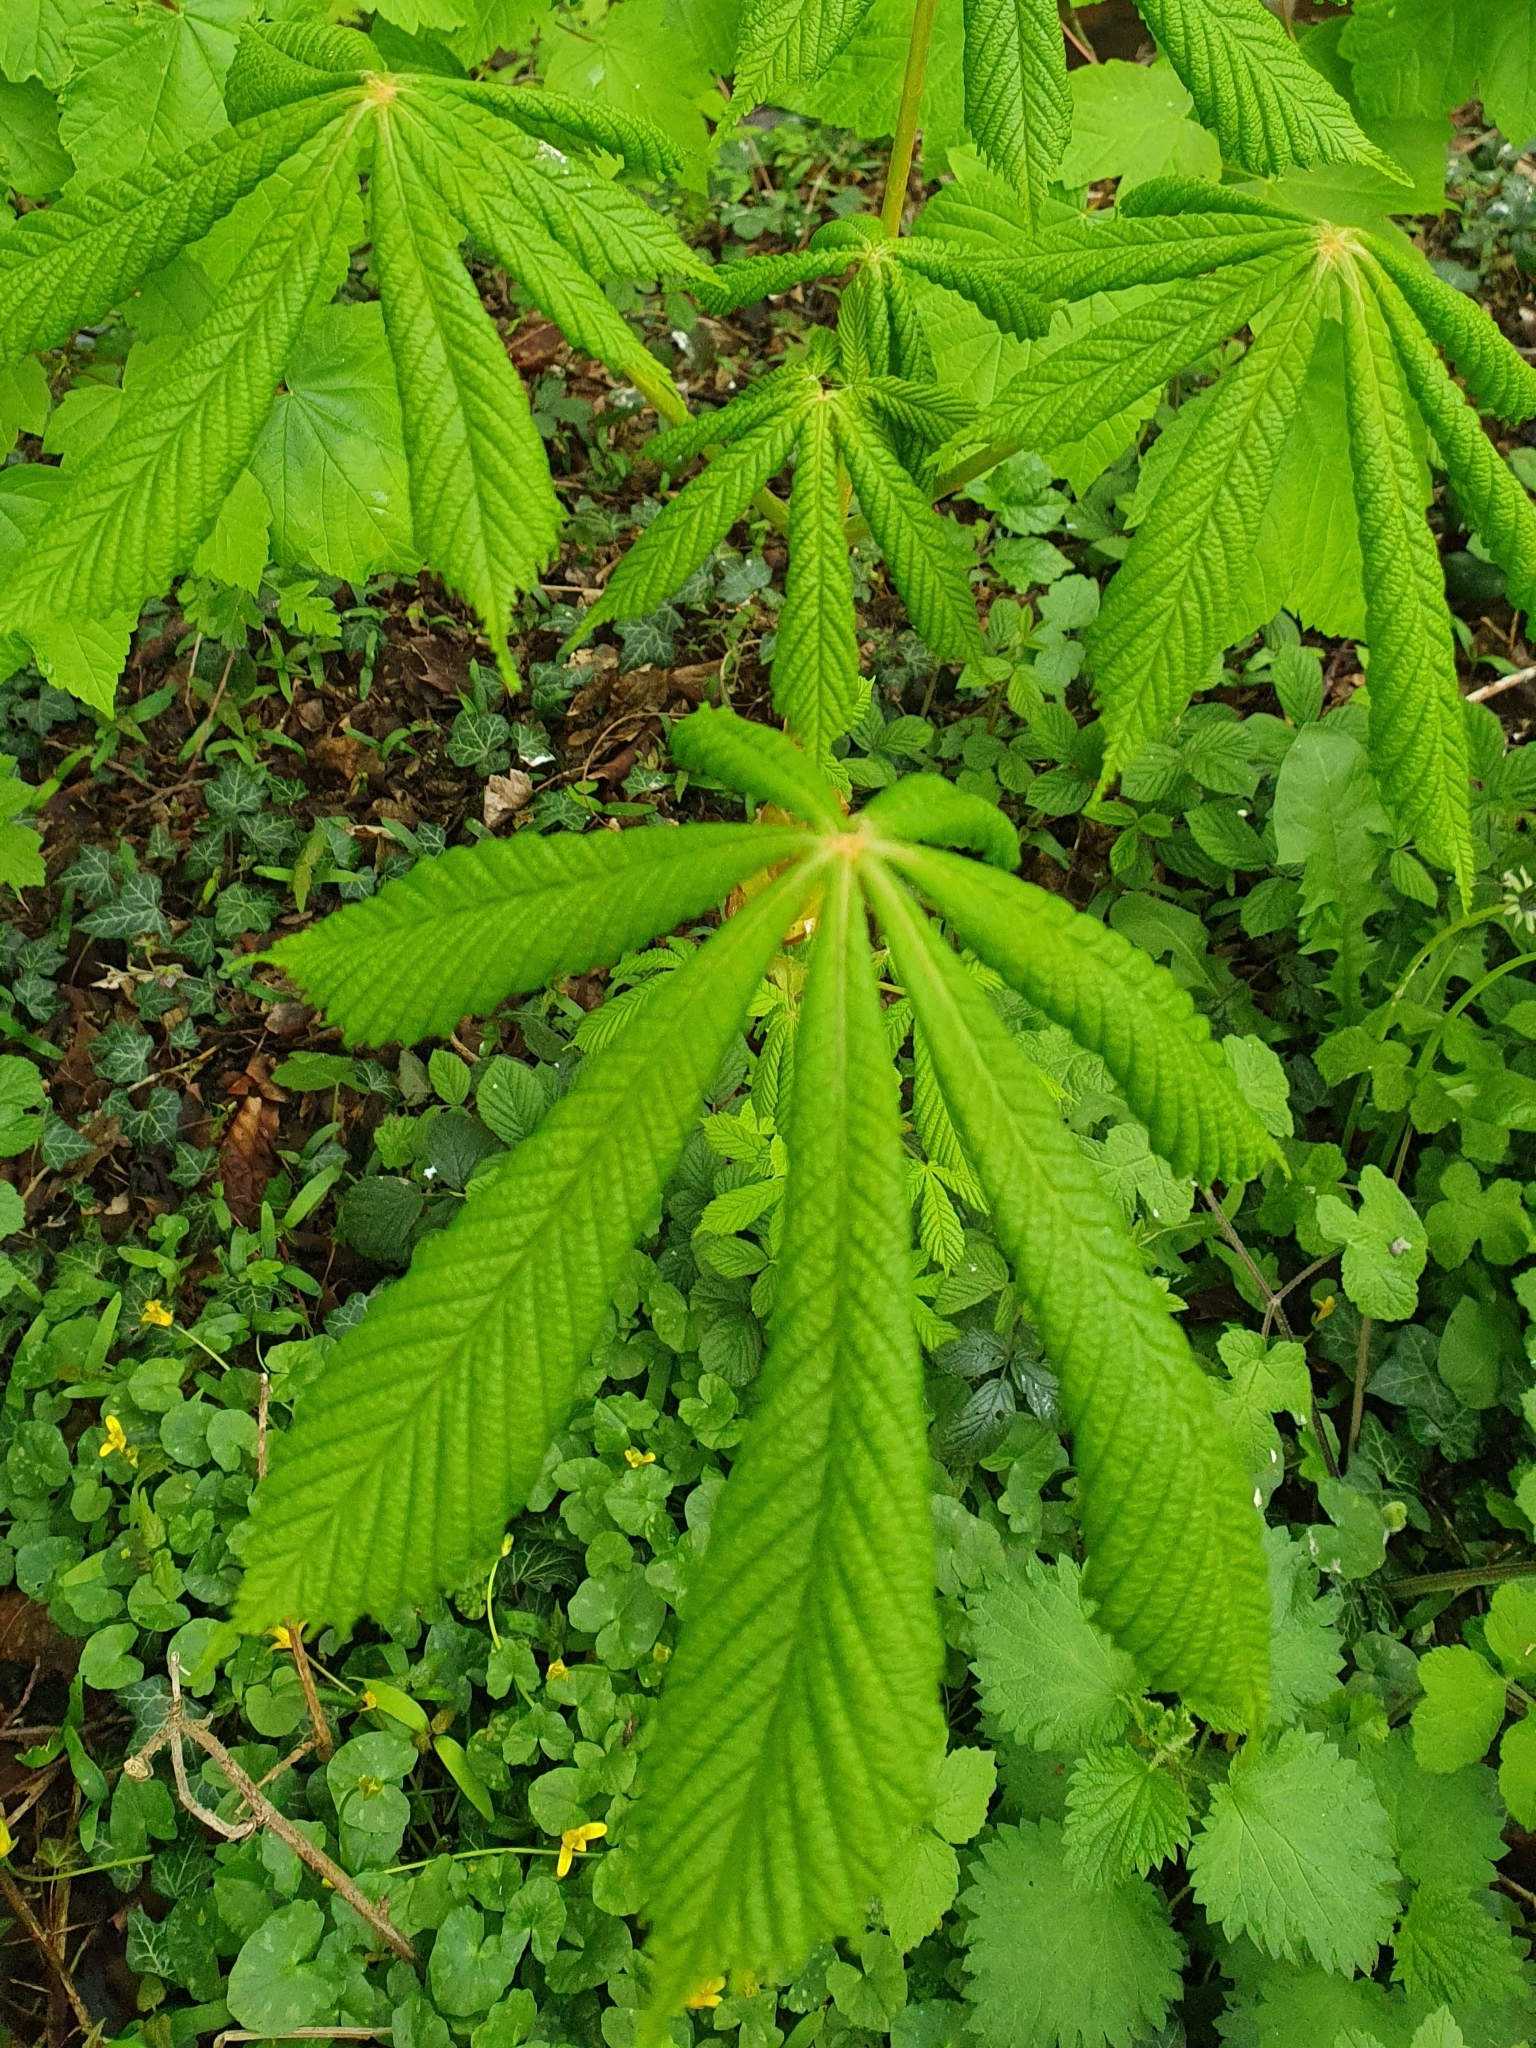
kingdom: Plantae
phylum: Tracheophyta
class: Magnoliopsida
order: Sapindales
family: Sapindaceae
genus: Aesculus
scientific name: Aesculus hippocastanum
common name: Horse-chestnut
